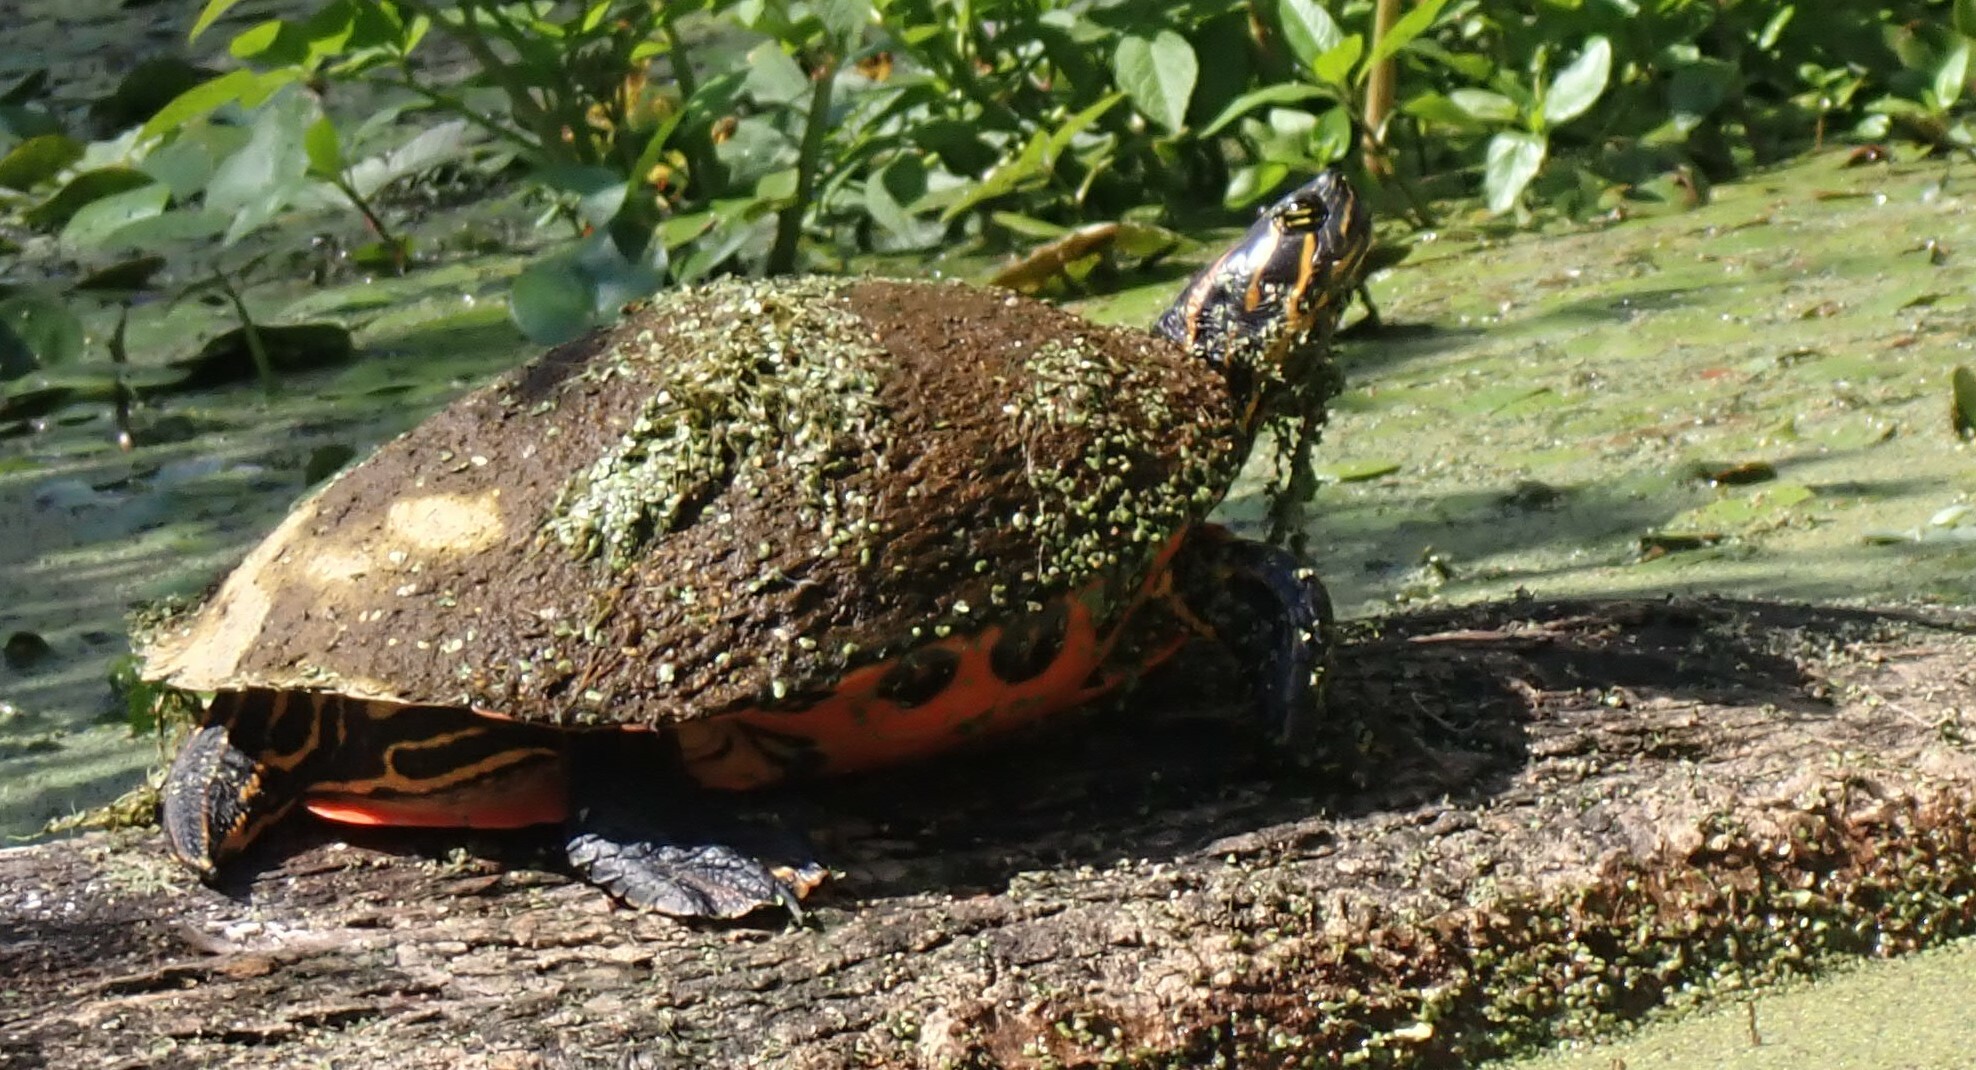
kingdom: Animalia
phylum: Chordata
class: Testudines
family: Emydidae
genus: Pseudemys
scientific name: Pseudemys nelsoni
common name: Florida red-bellied turtle
